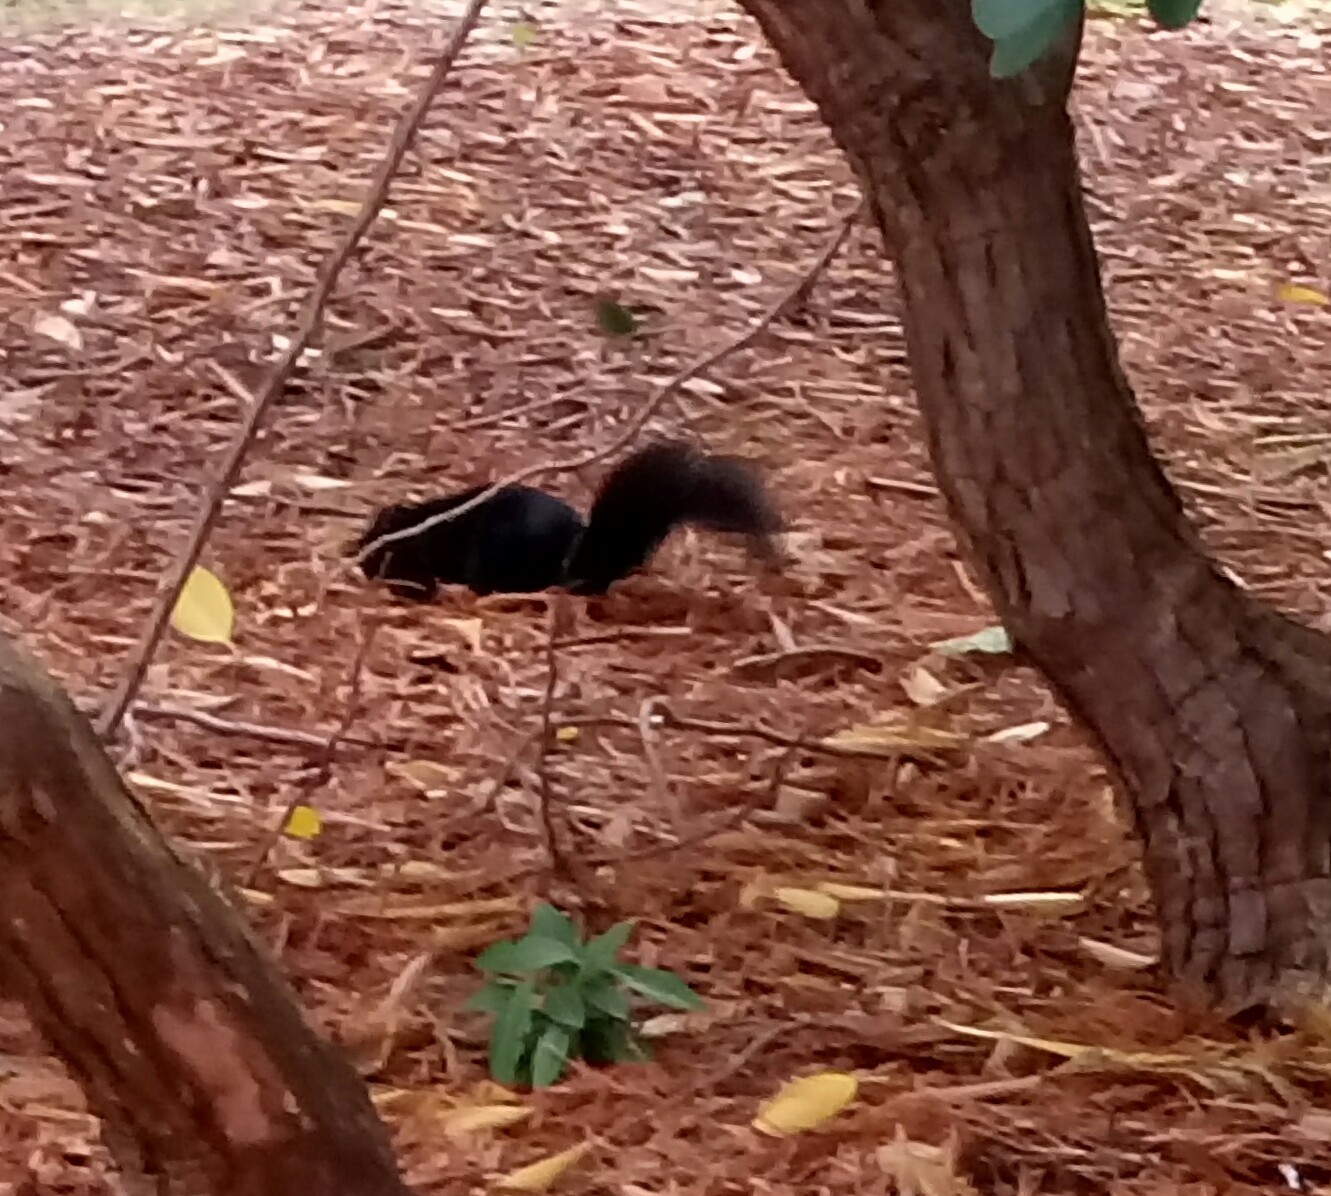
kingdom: Animalia
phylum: Chordata
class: Mammalia
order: Rodentia
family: Sciuridae
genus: Sciurus
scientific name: Sciurus carolinensis
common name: Eastern gray squirrel
